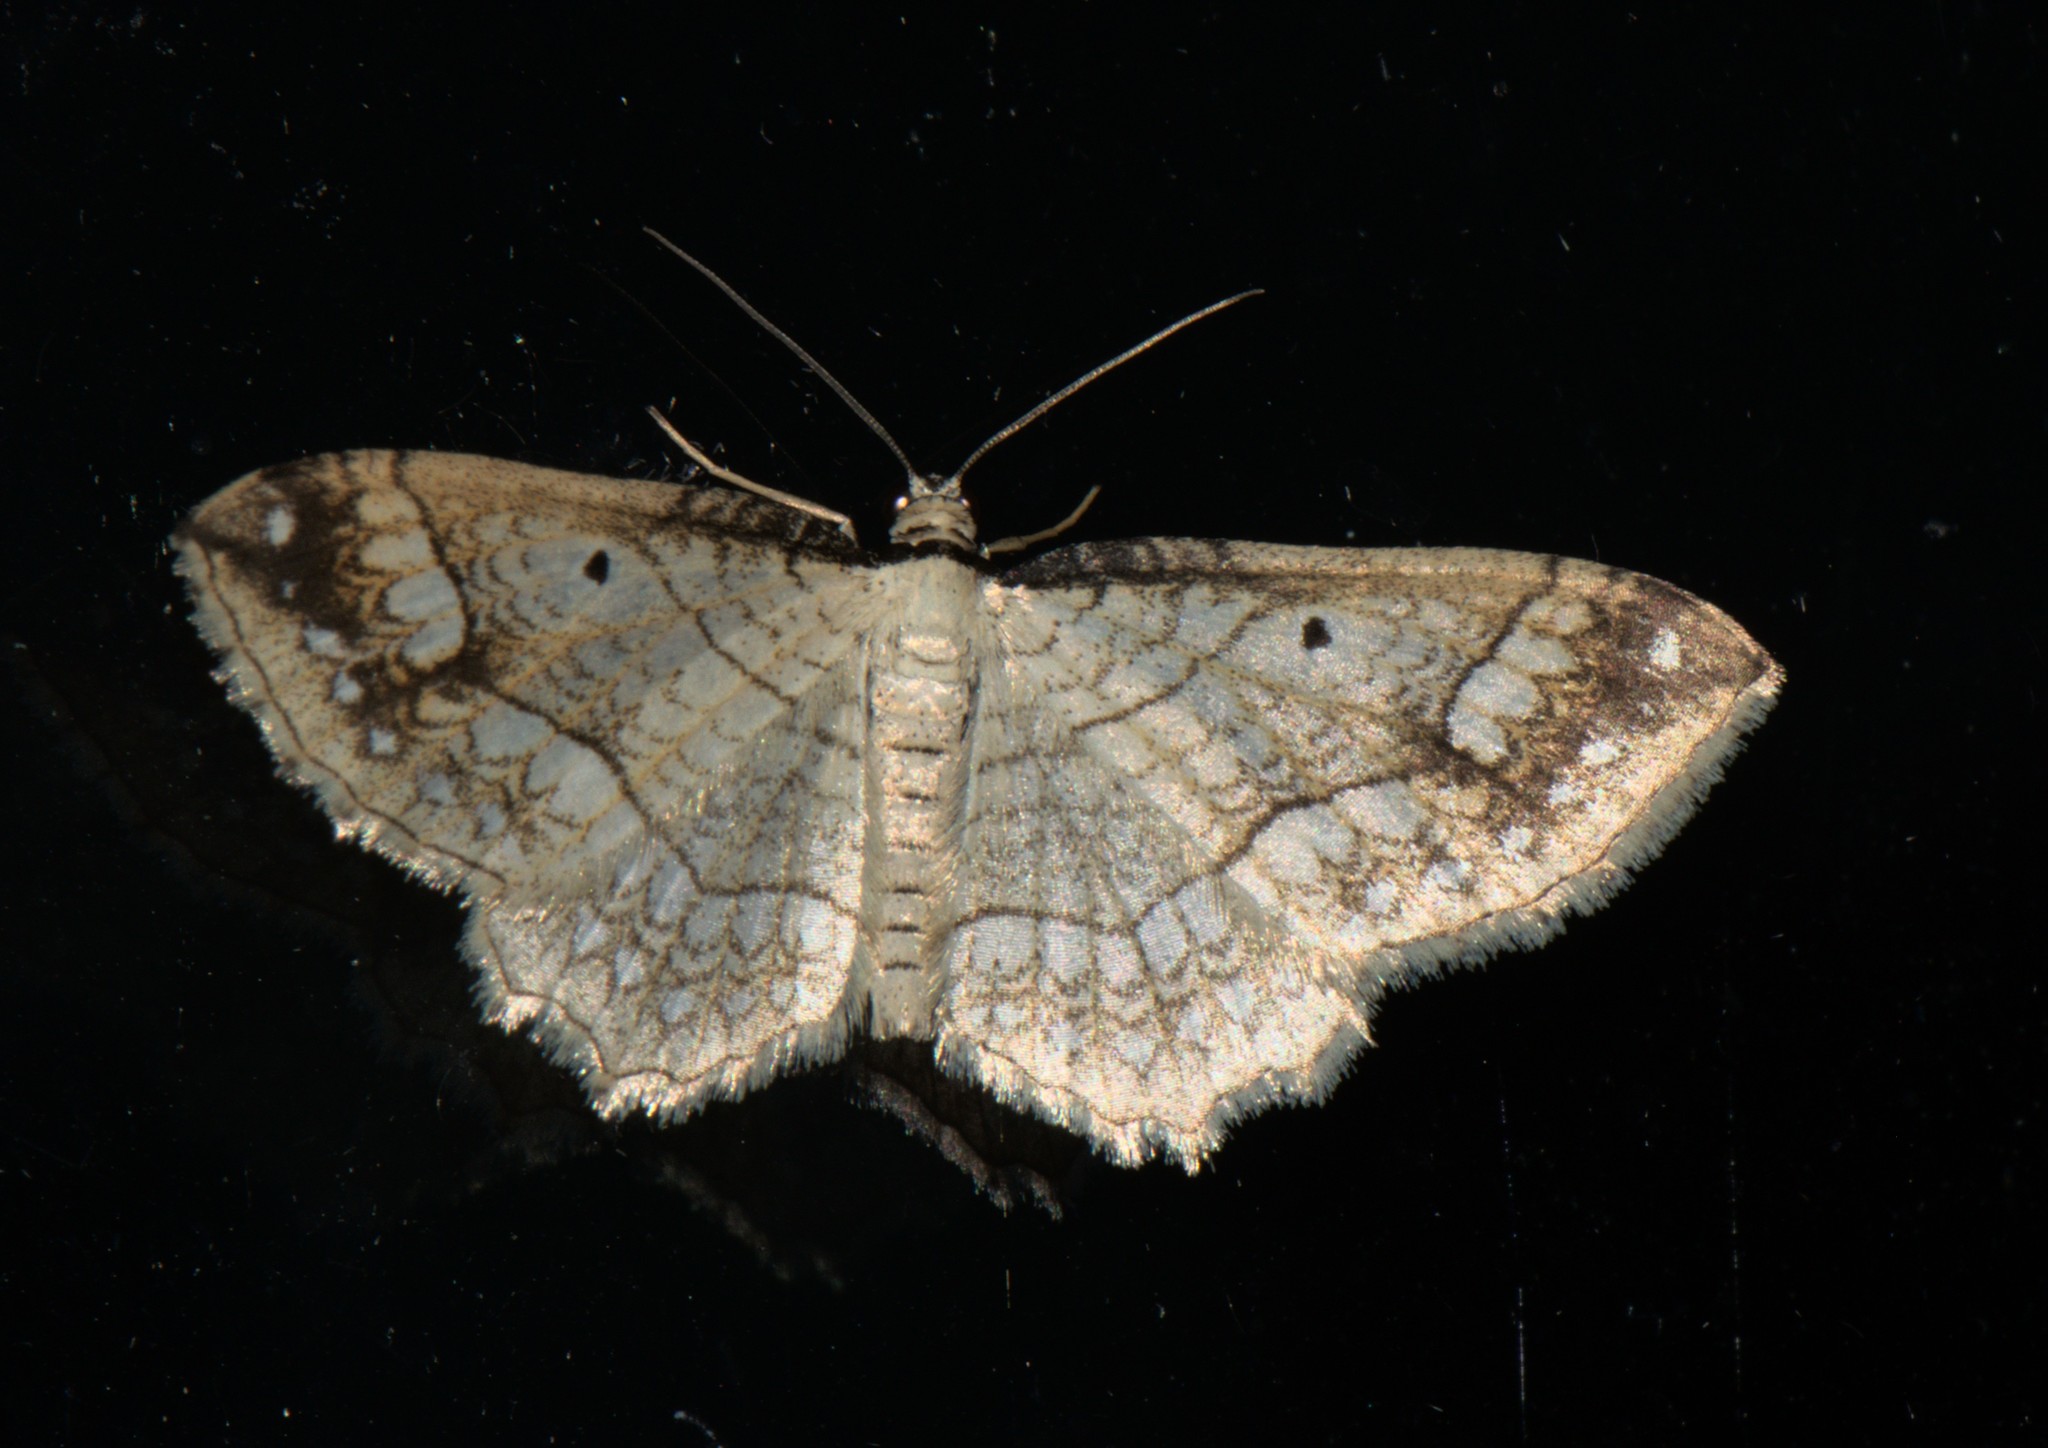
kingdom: Animalia
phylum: Arthropoda
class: Insecta
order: Lepidoptera
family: Geometridae
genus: Laciniodes
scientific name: Laciniodes plurilinearia
